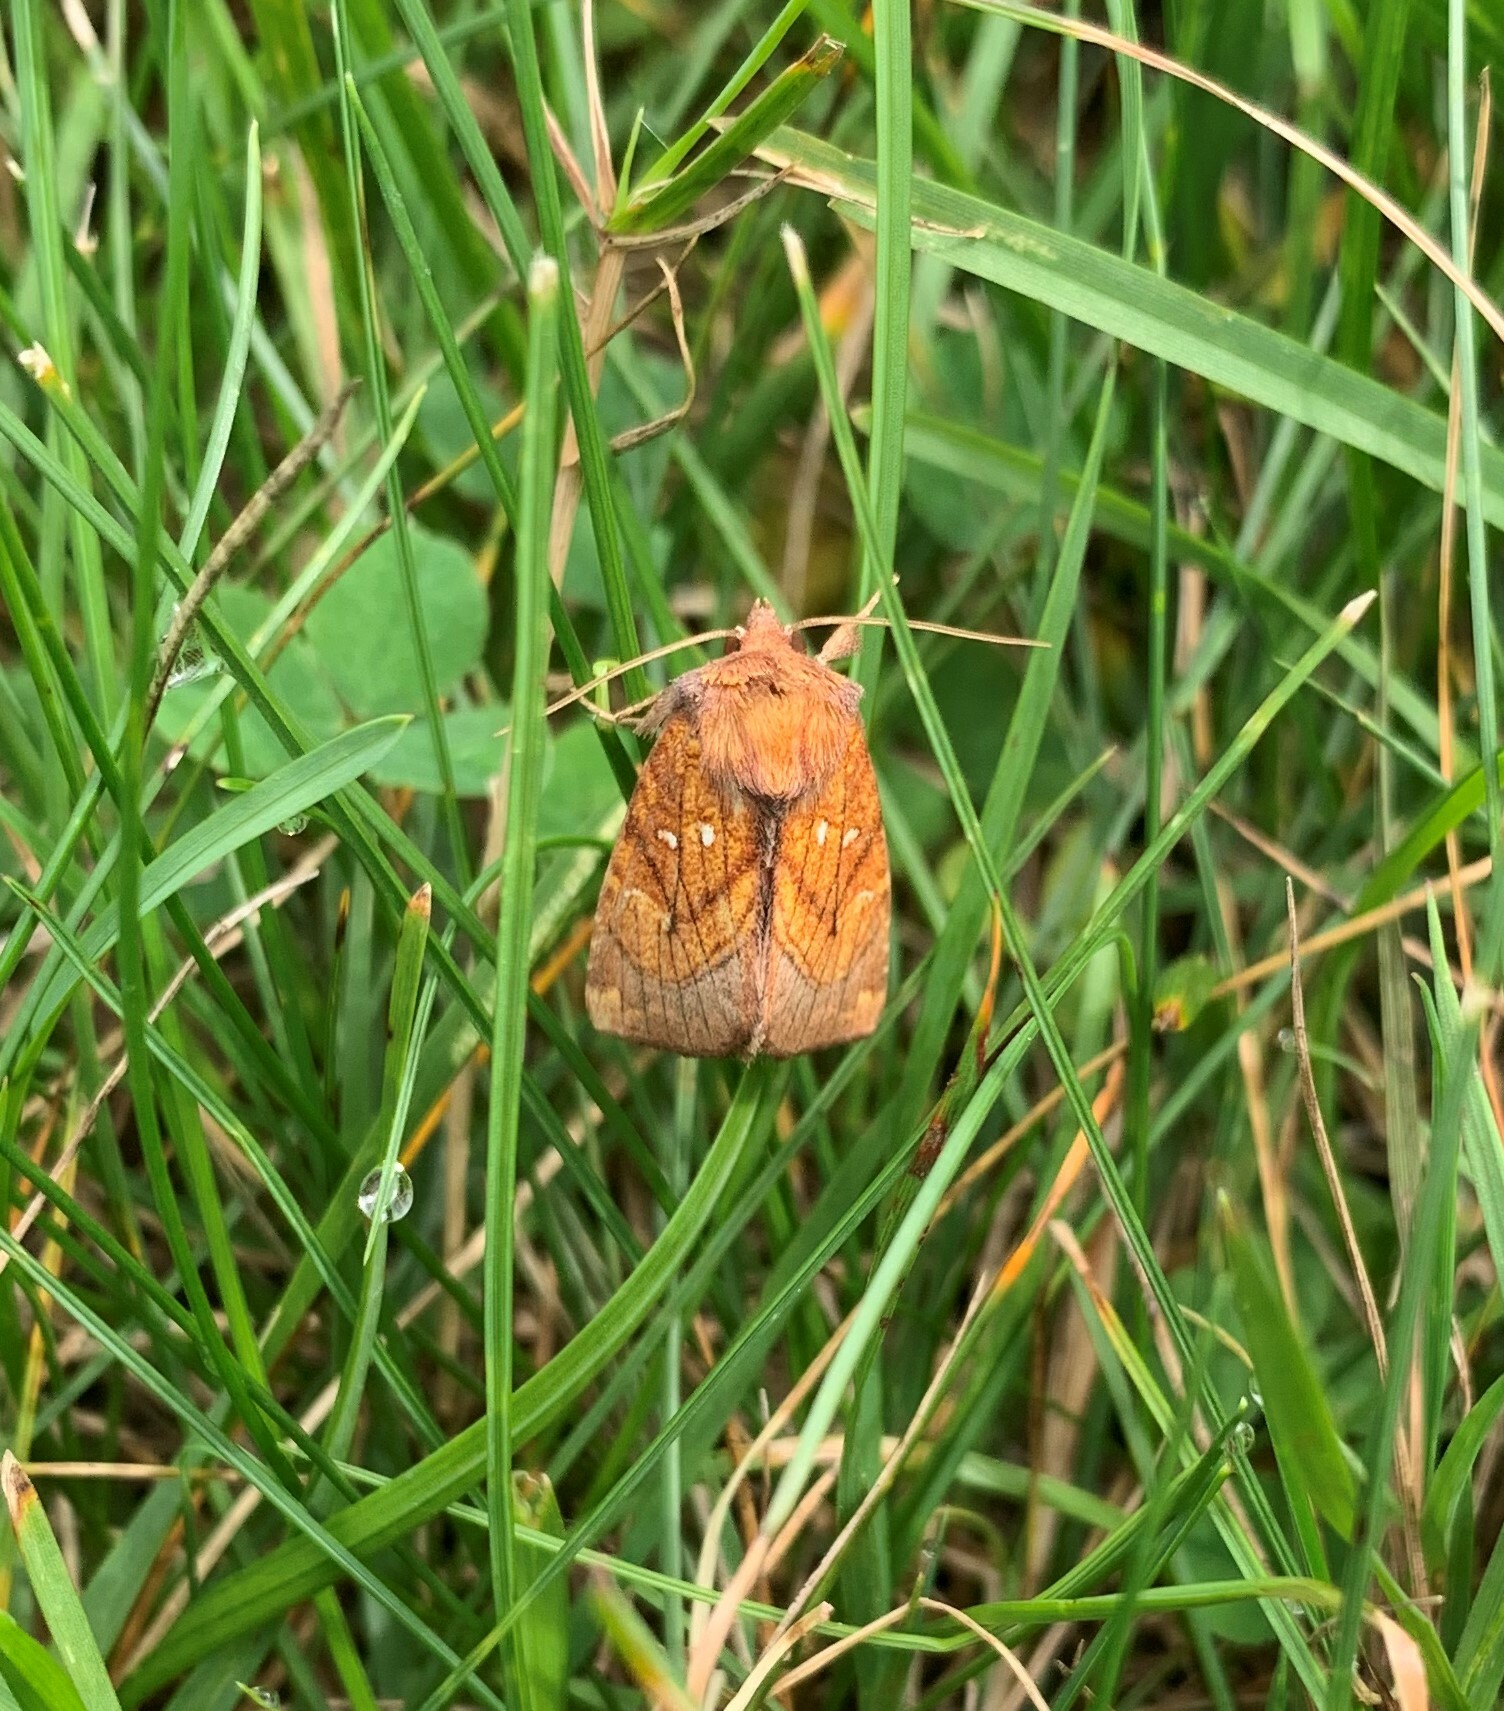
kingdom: Animalia
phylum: Arthropoda
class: Insecta
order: Lepidoptera
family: Noctuidae
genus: Papaipema
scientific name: Papaipema inquaesita
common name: Sensitive fern borer moth
